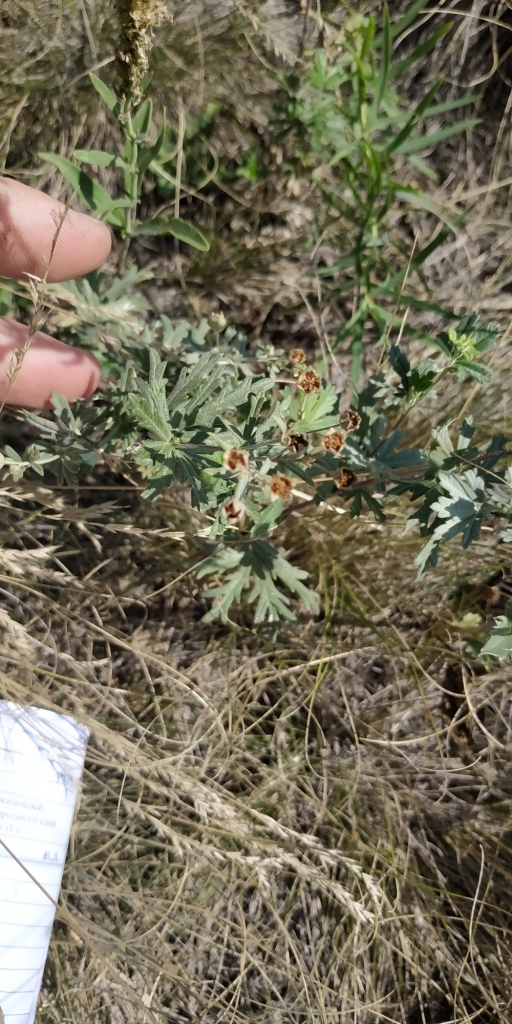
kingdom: Plantae
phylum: Tracheophyta
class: Magnoliopsida
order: Rosales
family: Rosaceae
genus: Potentilla
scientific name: Potentilla argentea
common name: Hoary cinquefoil
